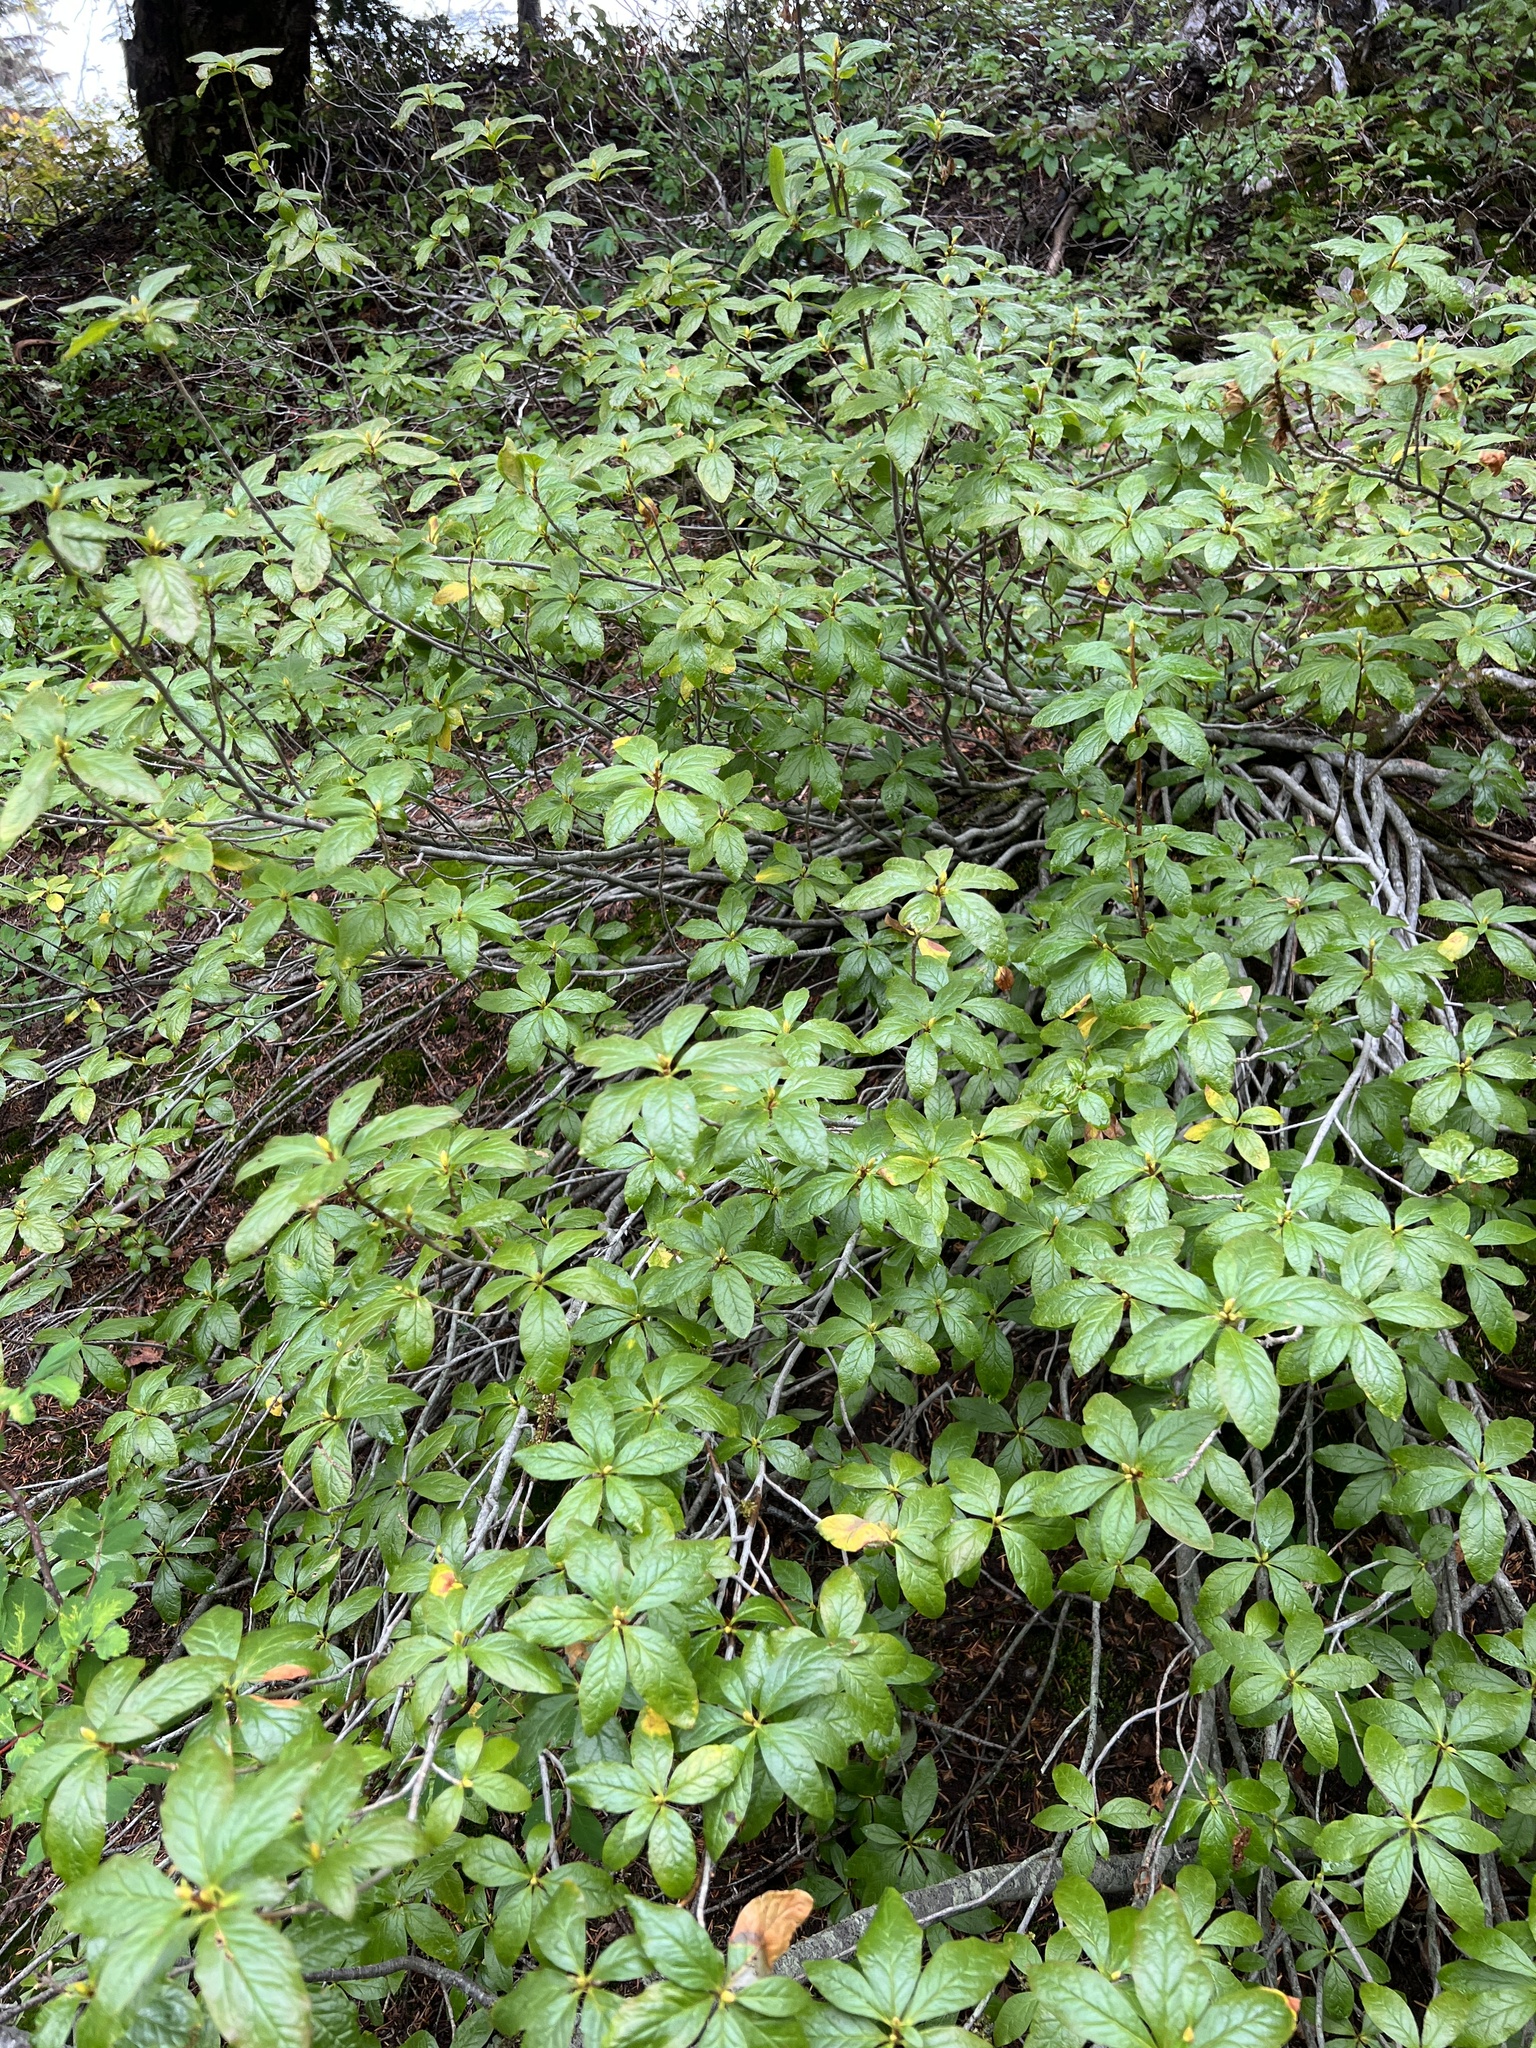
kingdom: Plantae
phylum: Tracheophyta
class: Magnoliopsida
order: Ericales
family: Ericaceae
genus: Rhododendron
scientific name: Rhododendron albiflorum
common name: White rhododendron
